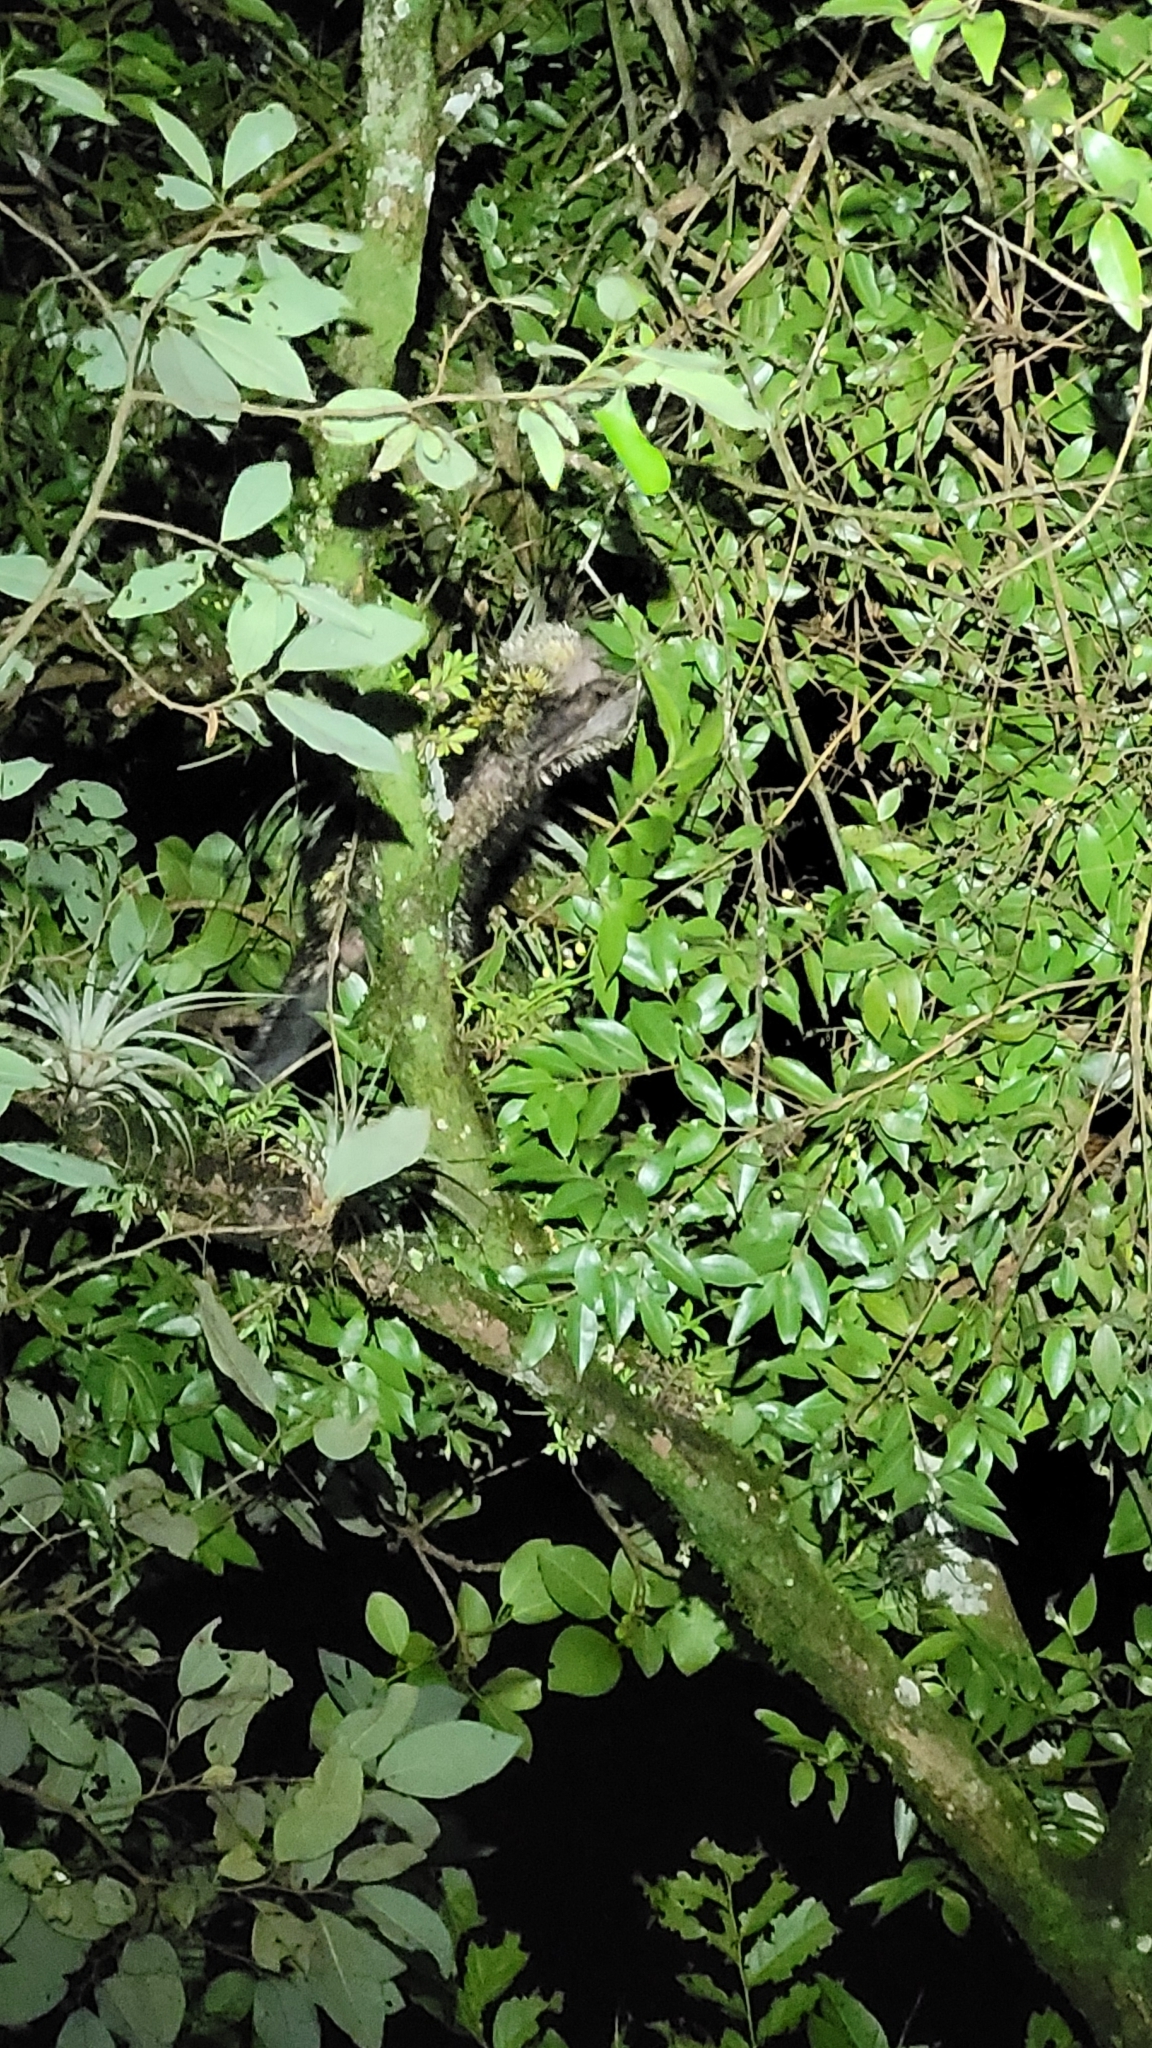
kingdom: Animalia
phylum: Chordata
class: Mammalia
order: Rodentia
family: Erethizontidae
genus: Sphiggurus
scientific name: Sphiggurus mexicanus
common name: Mexican hairy dwarf porcupine
